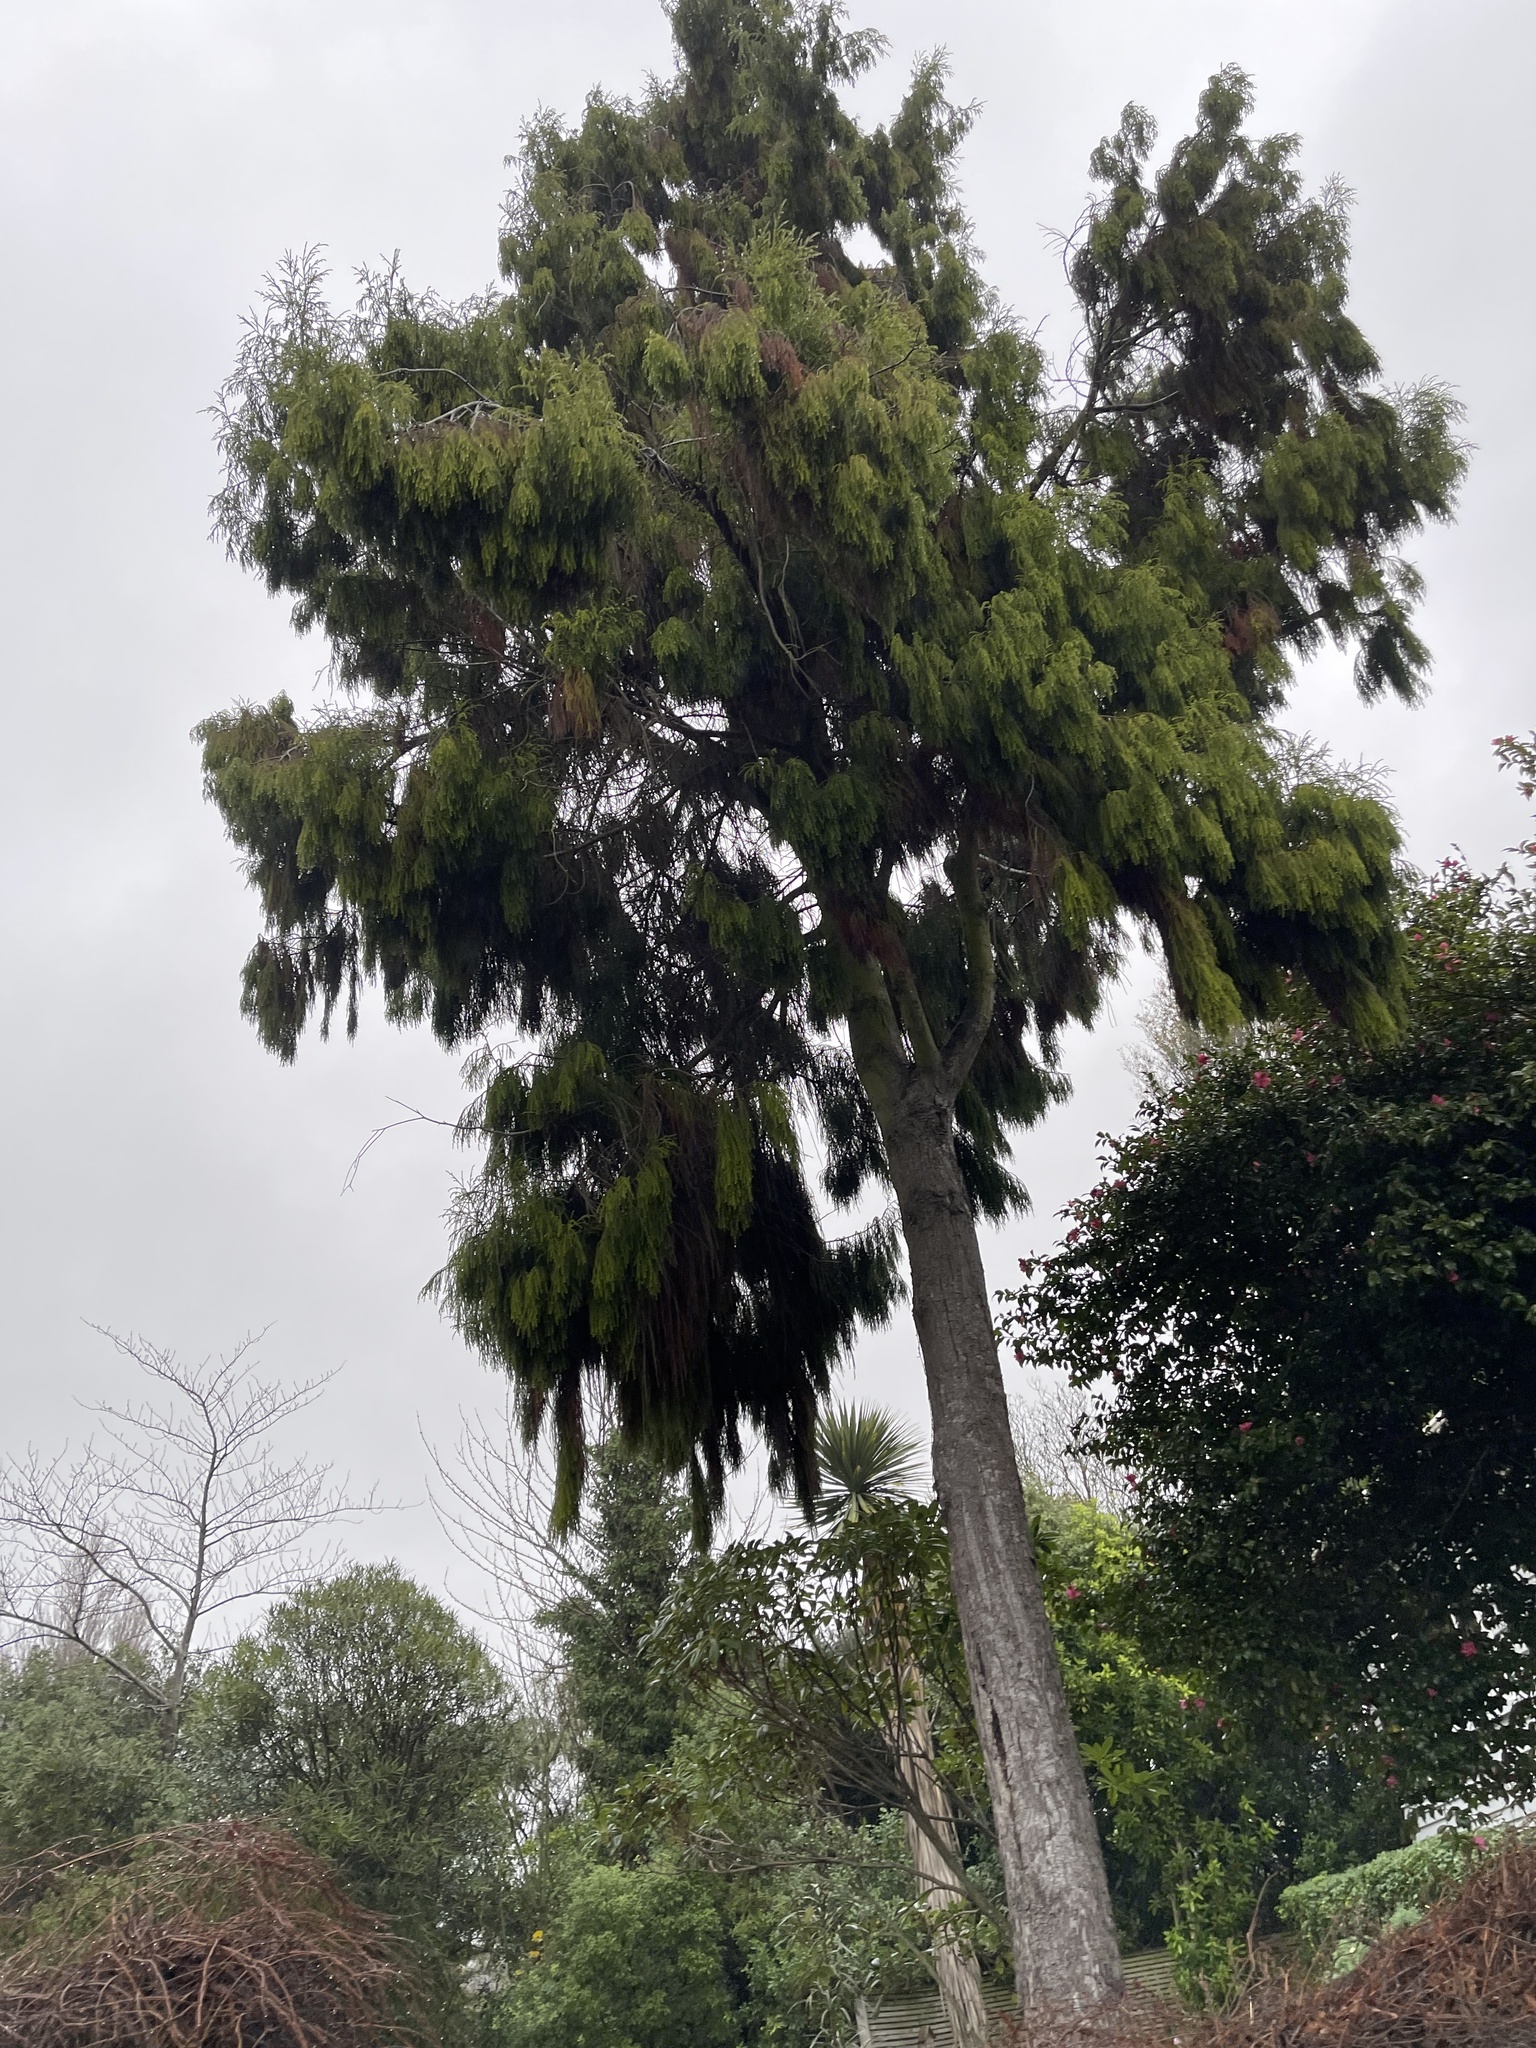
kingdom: Plantae
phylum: Tracheophyta
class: Pinopsida
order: Pinales
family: Podocarpaceae
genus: Dacrydium
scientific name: Dacrydium cupressinum
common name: Red pine
